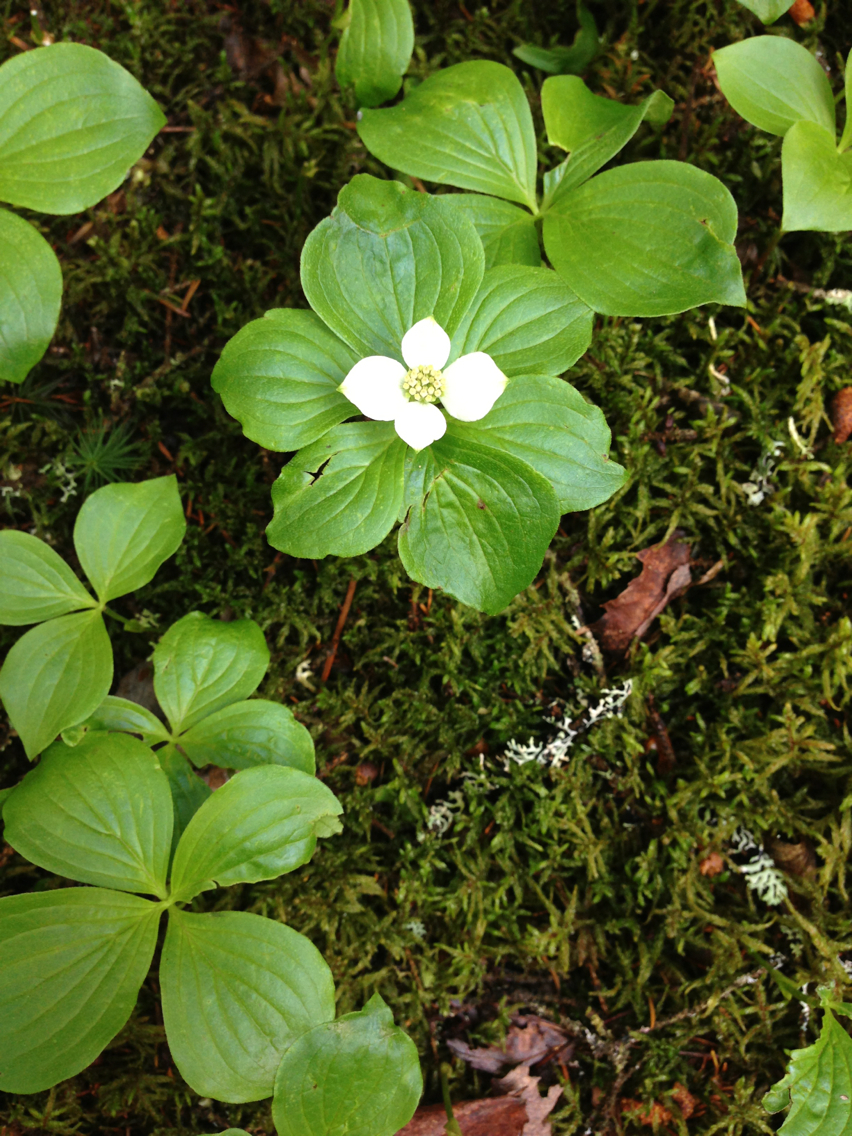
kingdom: Plantae
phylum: Tracheophyta
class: Magnoliopsida
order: Cornales
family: Cornaceae
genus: Cornus
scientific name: Cornus canadensis
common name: Creeping dogwood
